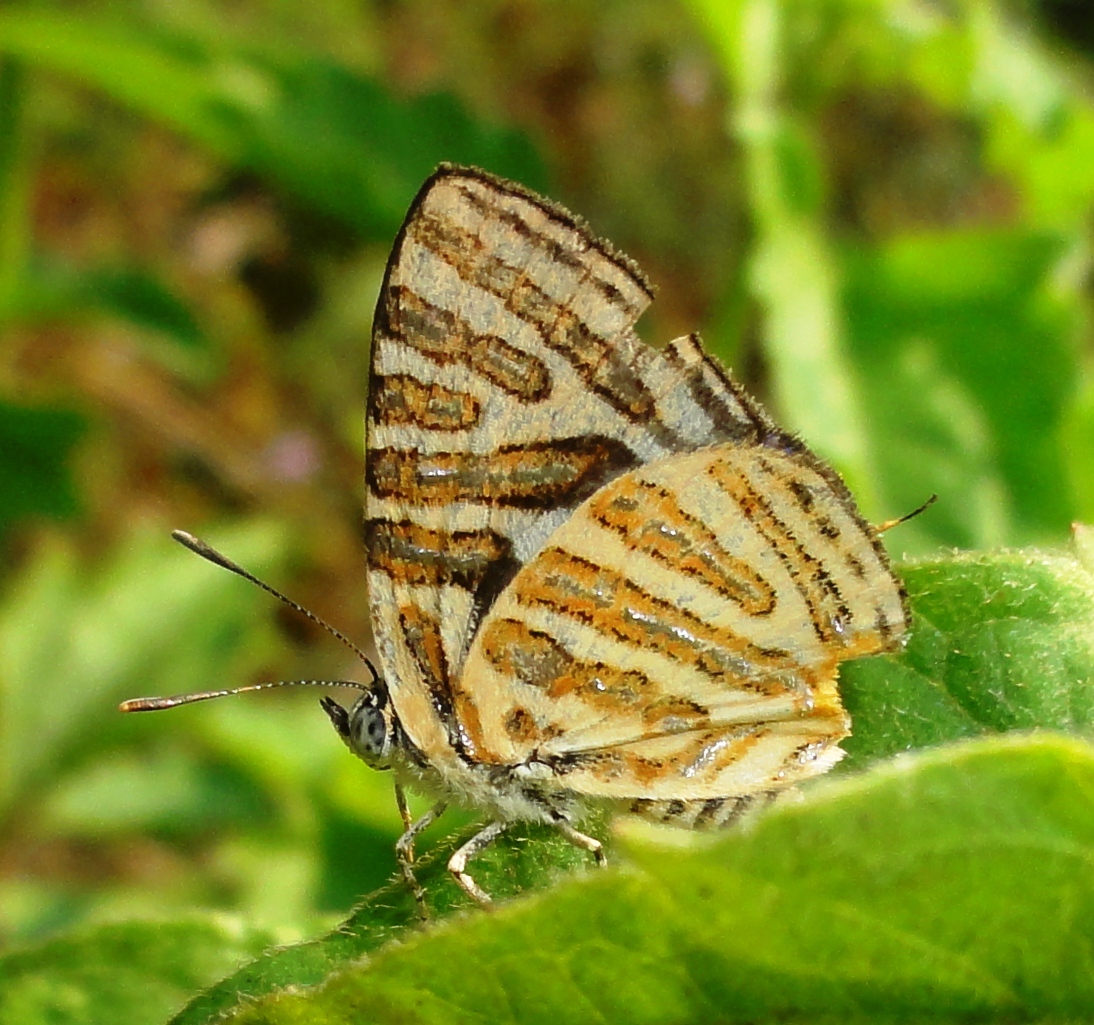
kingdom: Animalia
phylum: Arthropoda
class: Insecta
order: Lepidoptera
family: Lycaenidae
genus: Cigaritis
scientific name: Cigaritis syama
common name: Club silverline
